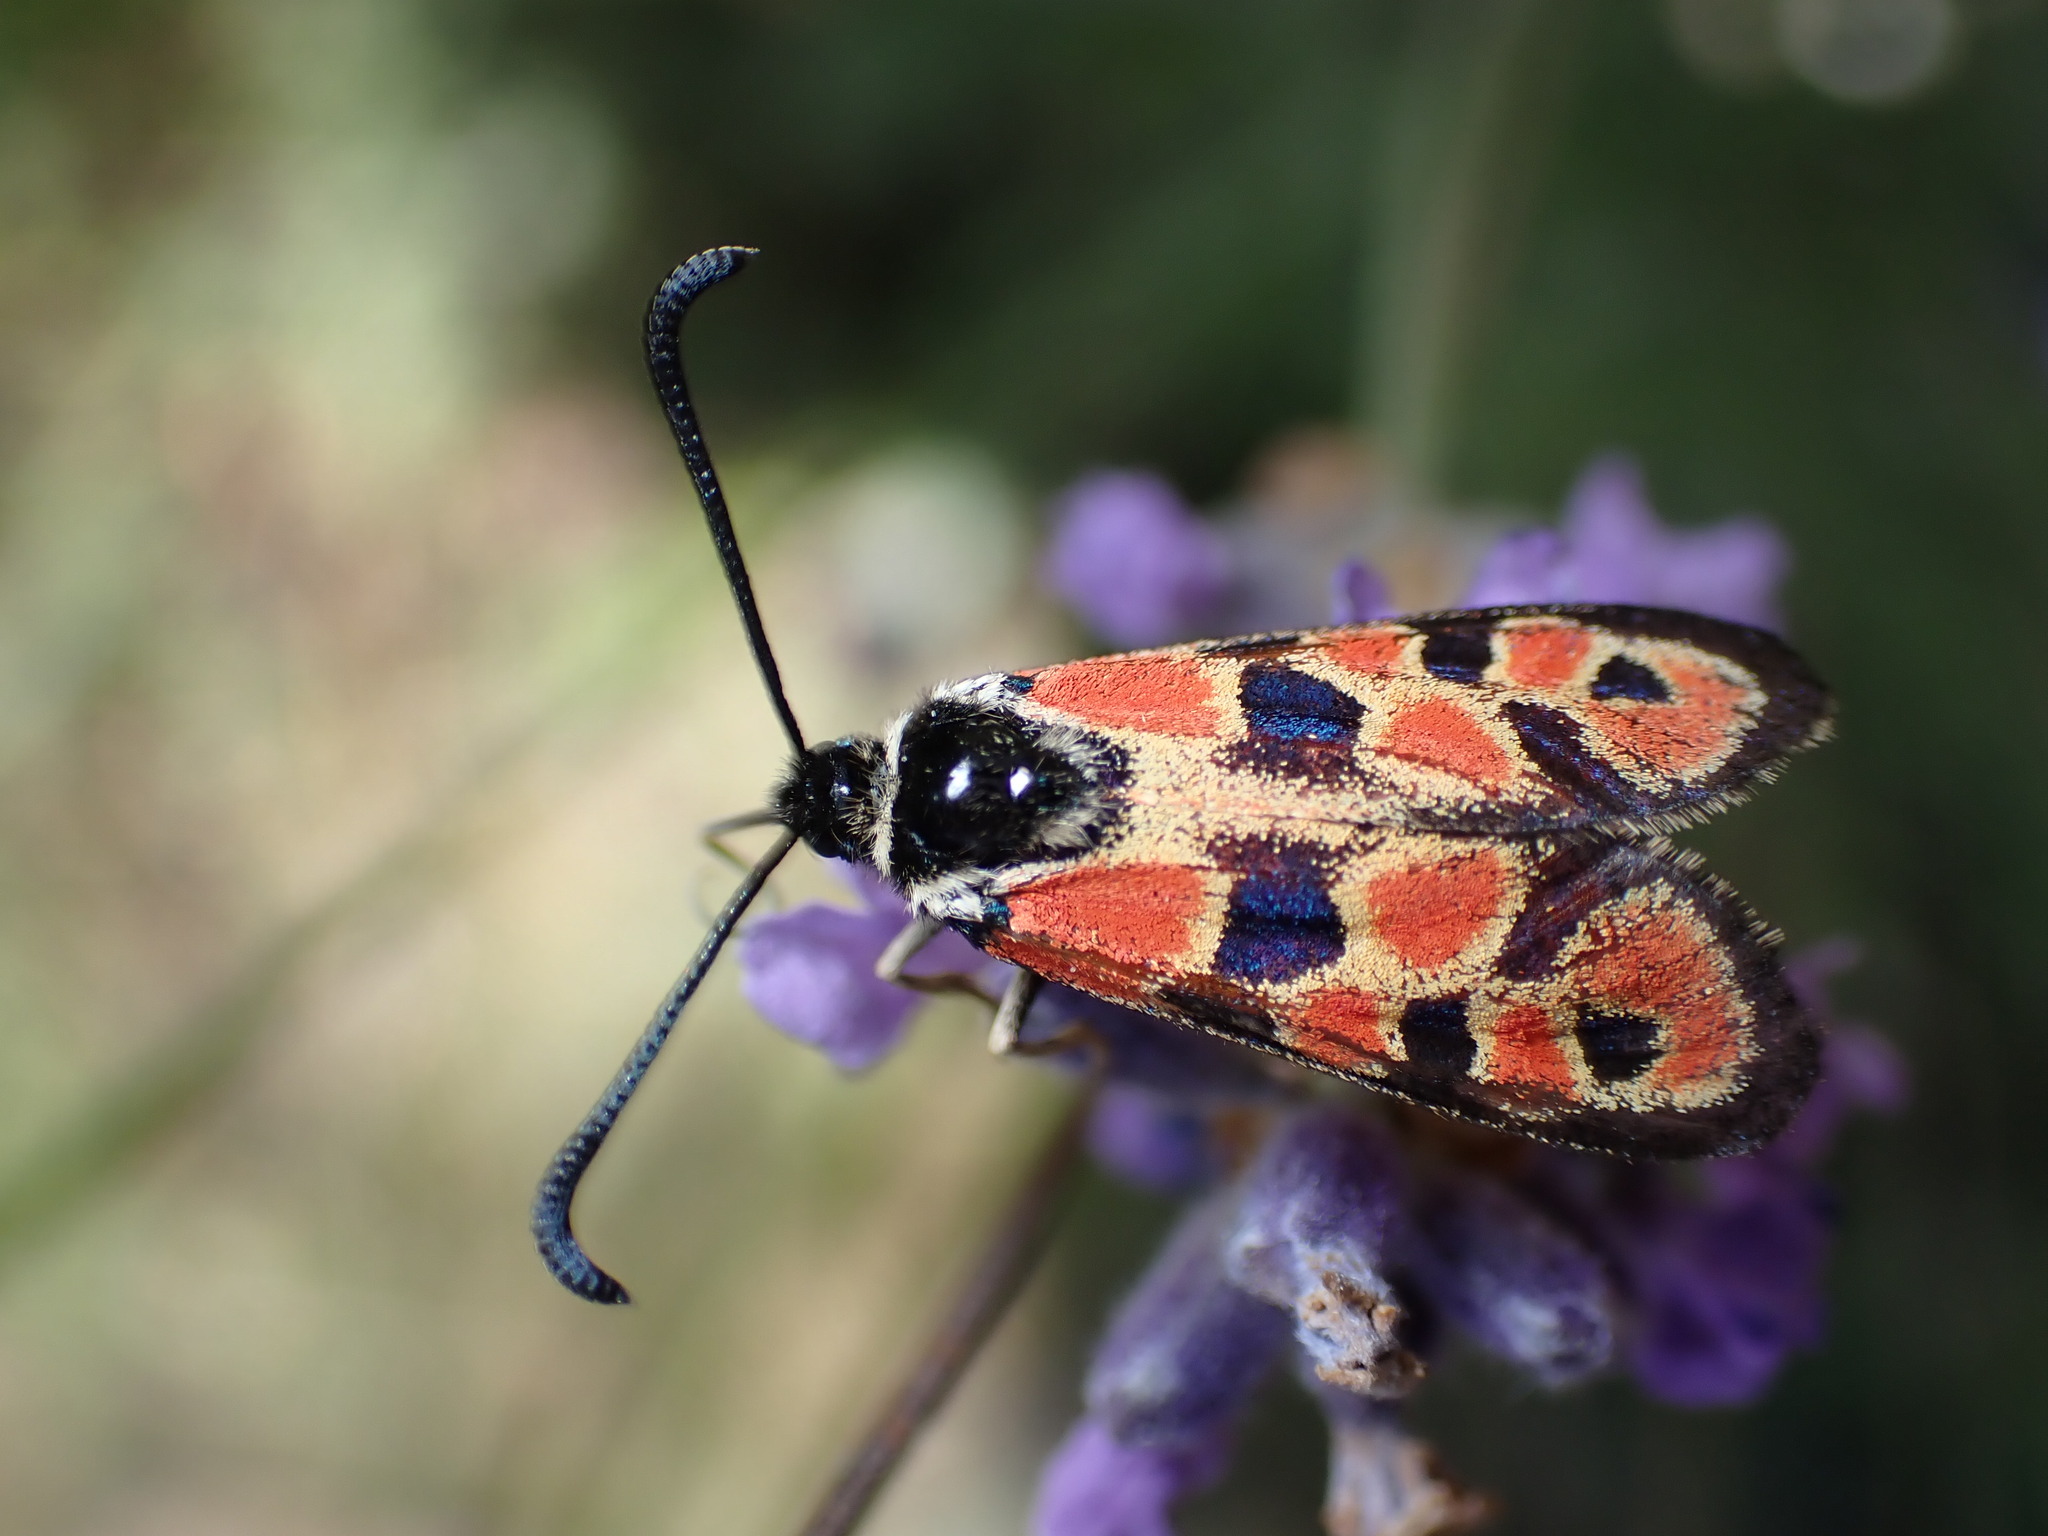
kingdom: Animalia
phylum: Arthropoda
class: Insecta
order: Lepidoptera
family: Zygaenidae
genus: Zygaena
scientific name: Zygaena hilaris
